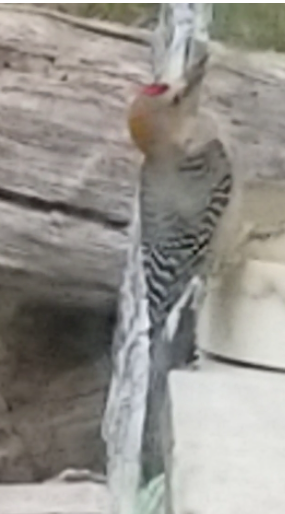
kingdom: Animalia
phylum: Chordata
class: Aves
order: Piciformes
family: Picidae
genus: Melanerpes
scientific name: Melanerpes aurifrons
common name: Golden-fronted woodpecker
